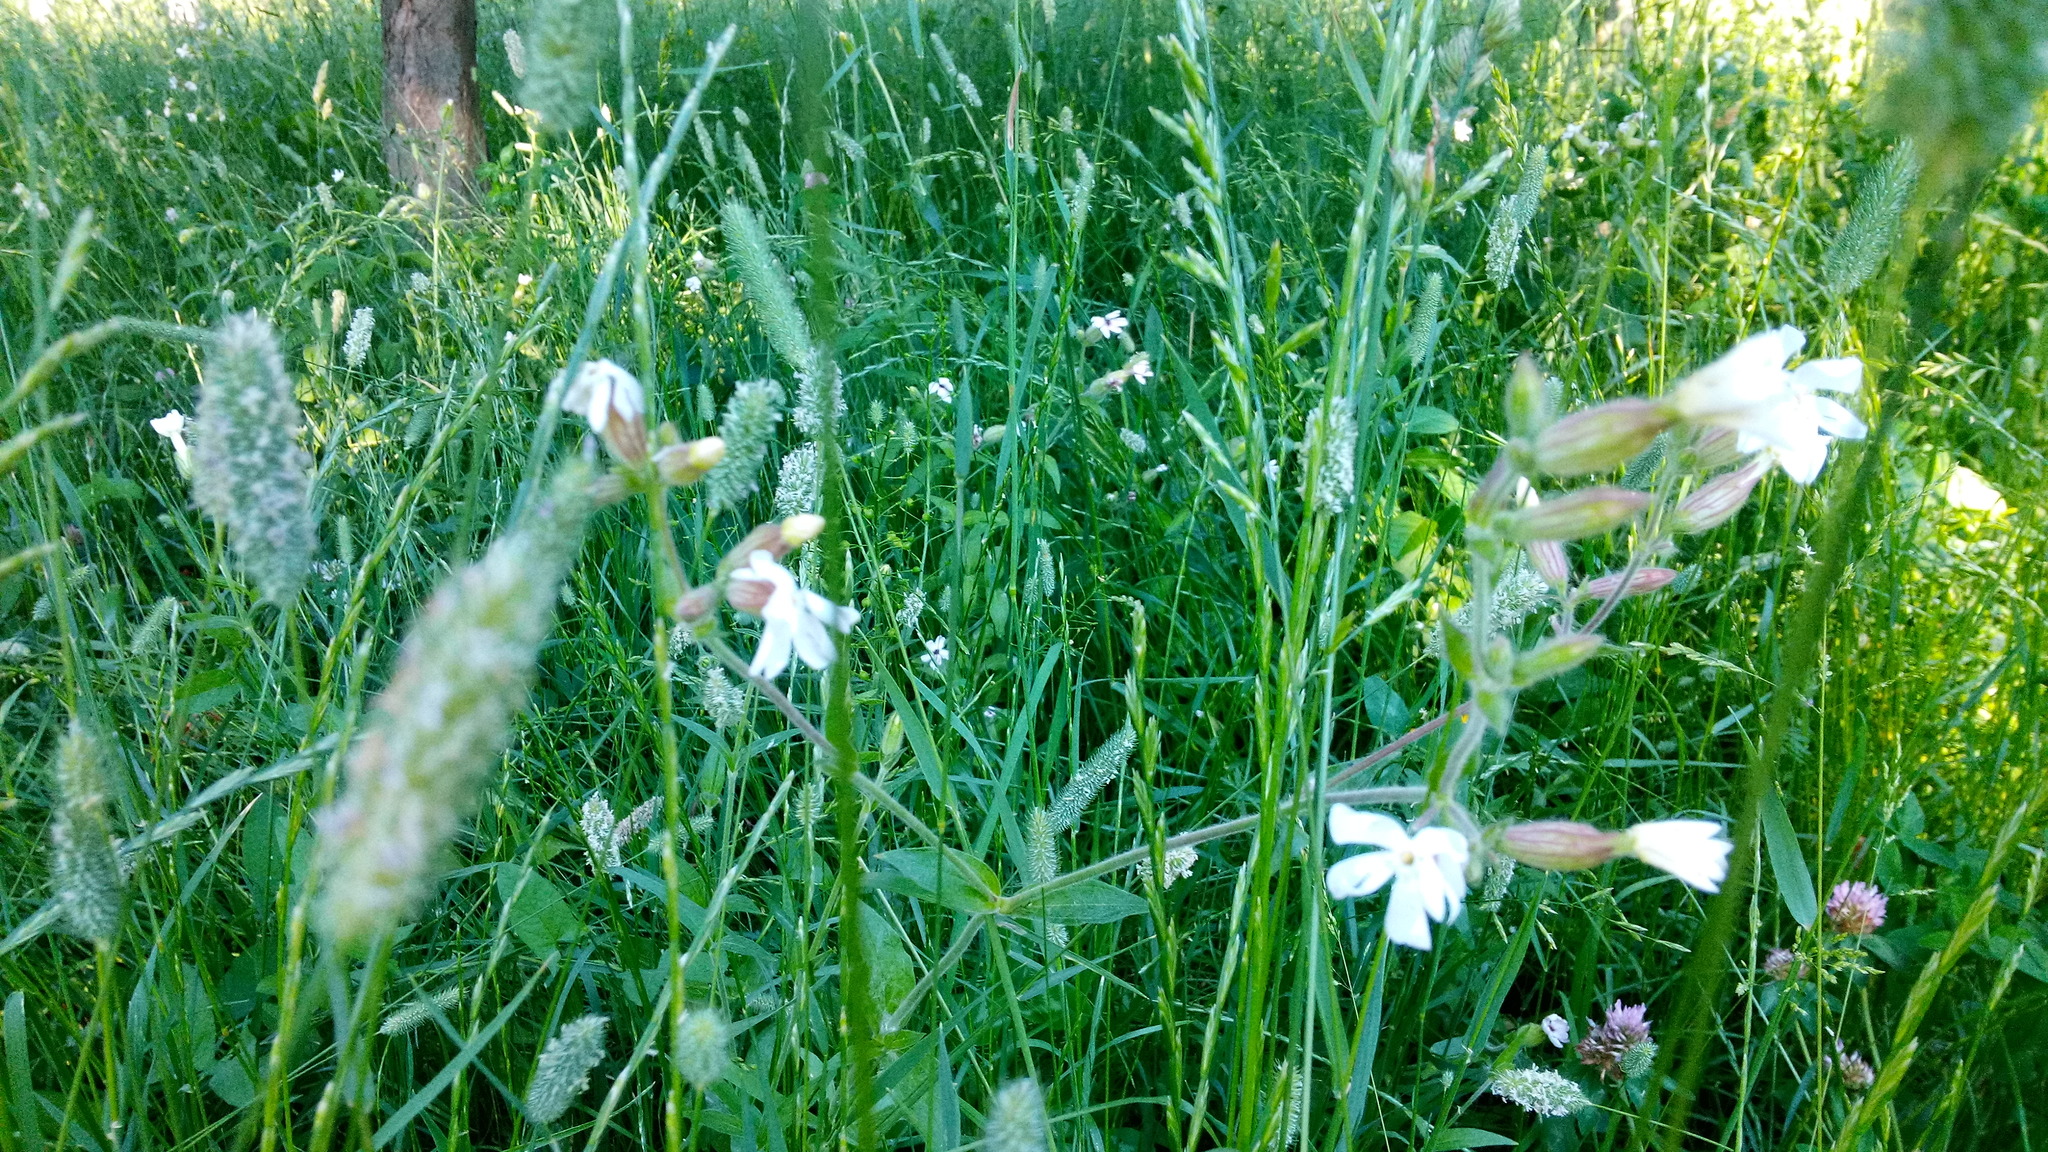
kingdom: Plantae
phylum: Tracheophyta
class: Magnoliopsida
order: Caryophyllales
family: Caryophyllaceae
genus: Silene
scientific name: Silene latifolia
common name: White campion
